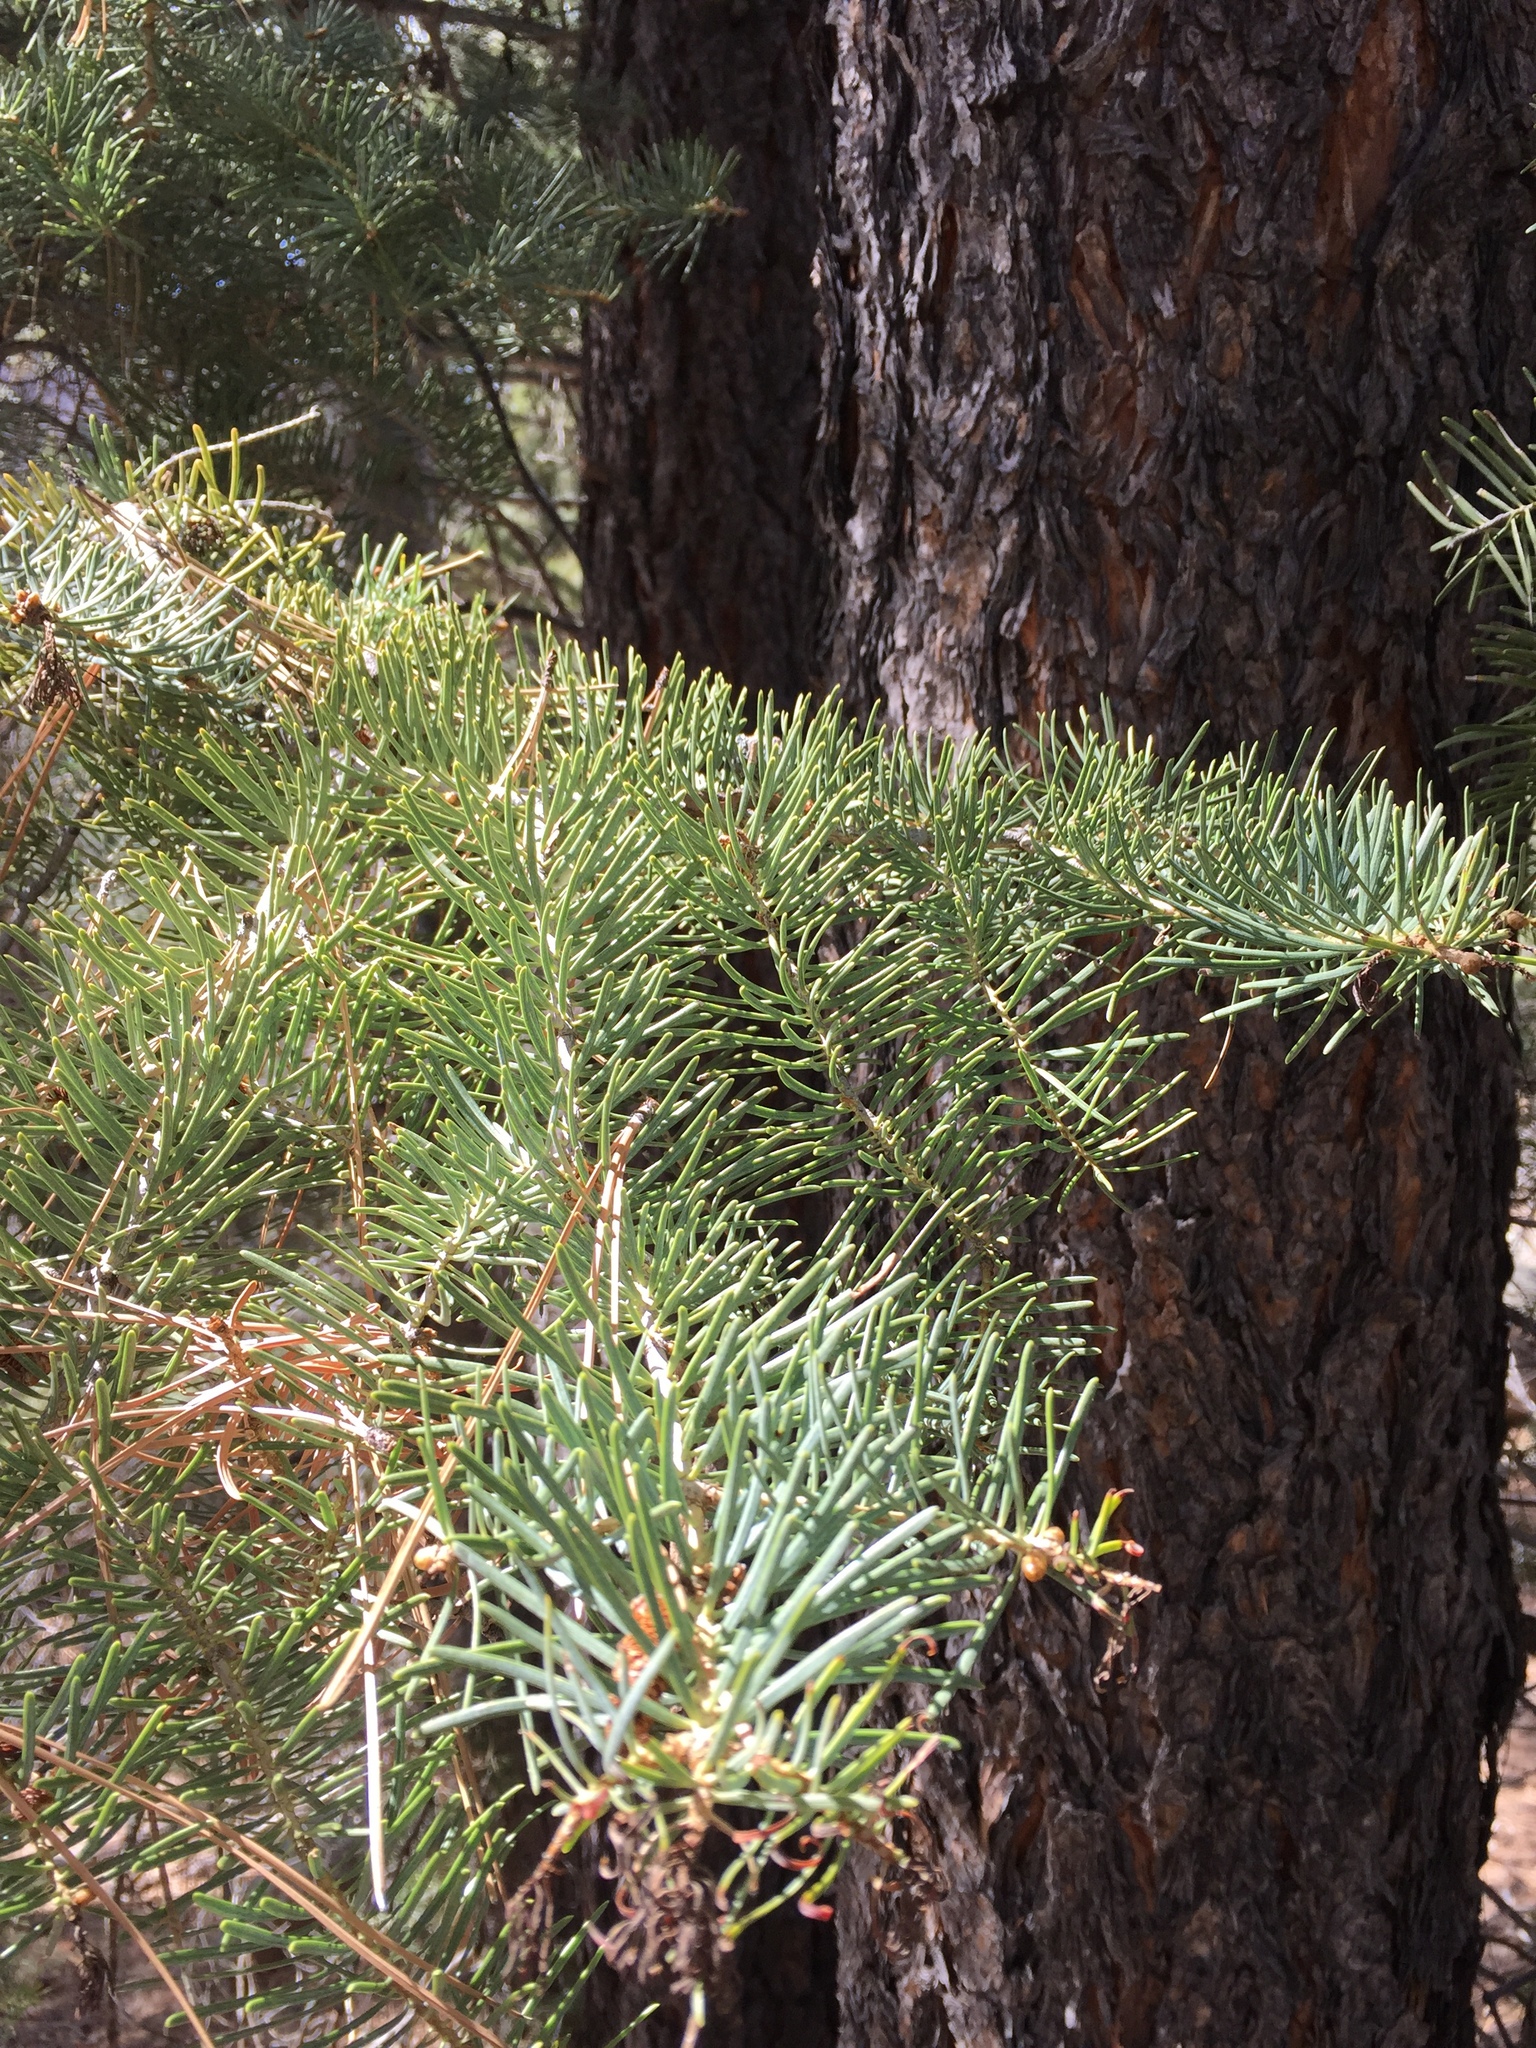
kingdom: Plantae
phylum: Tracheophyta
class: Pinopsida
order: Pinales
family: Pinaceae
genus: Abies
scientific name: Abies concolor
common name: Colorado fir
